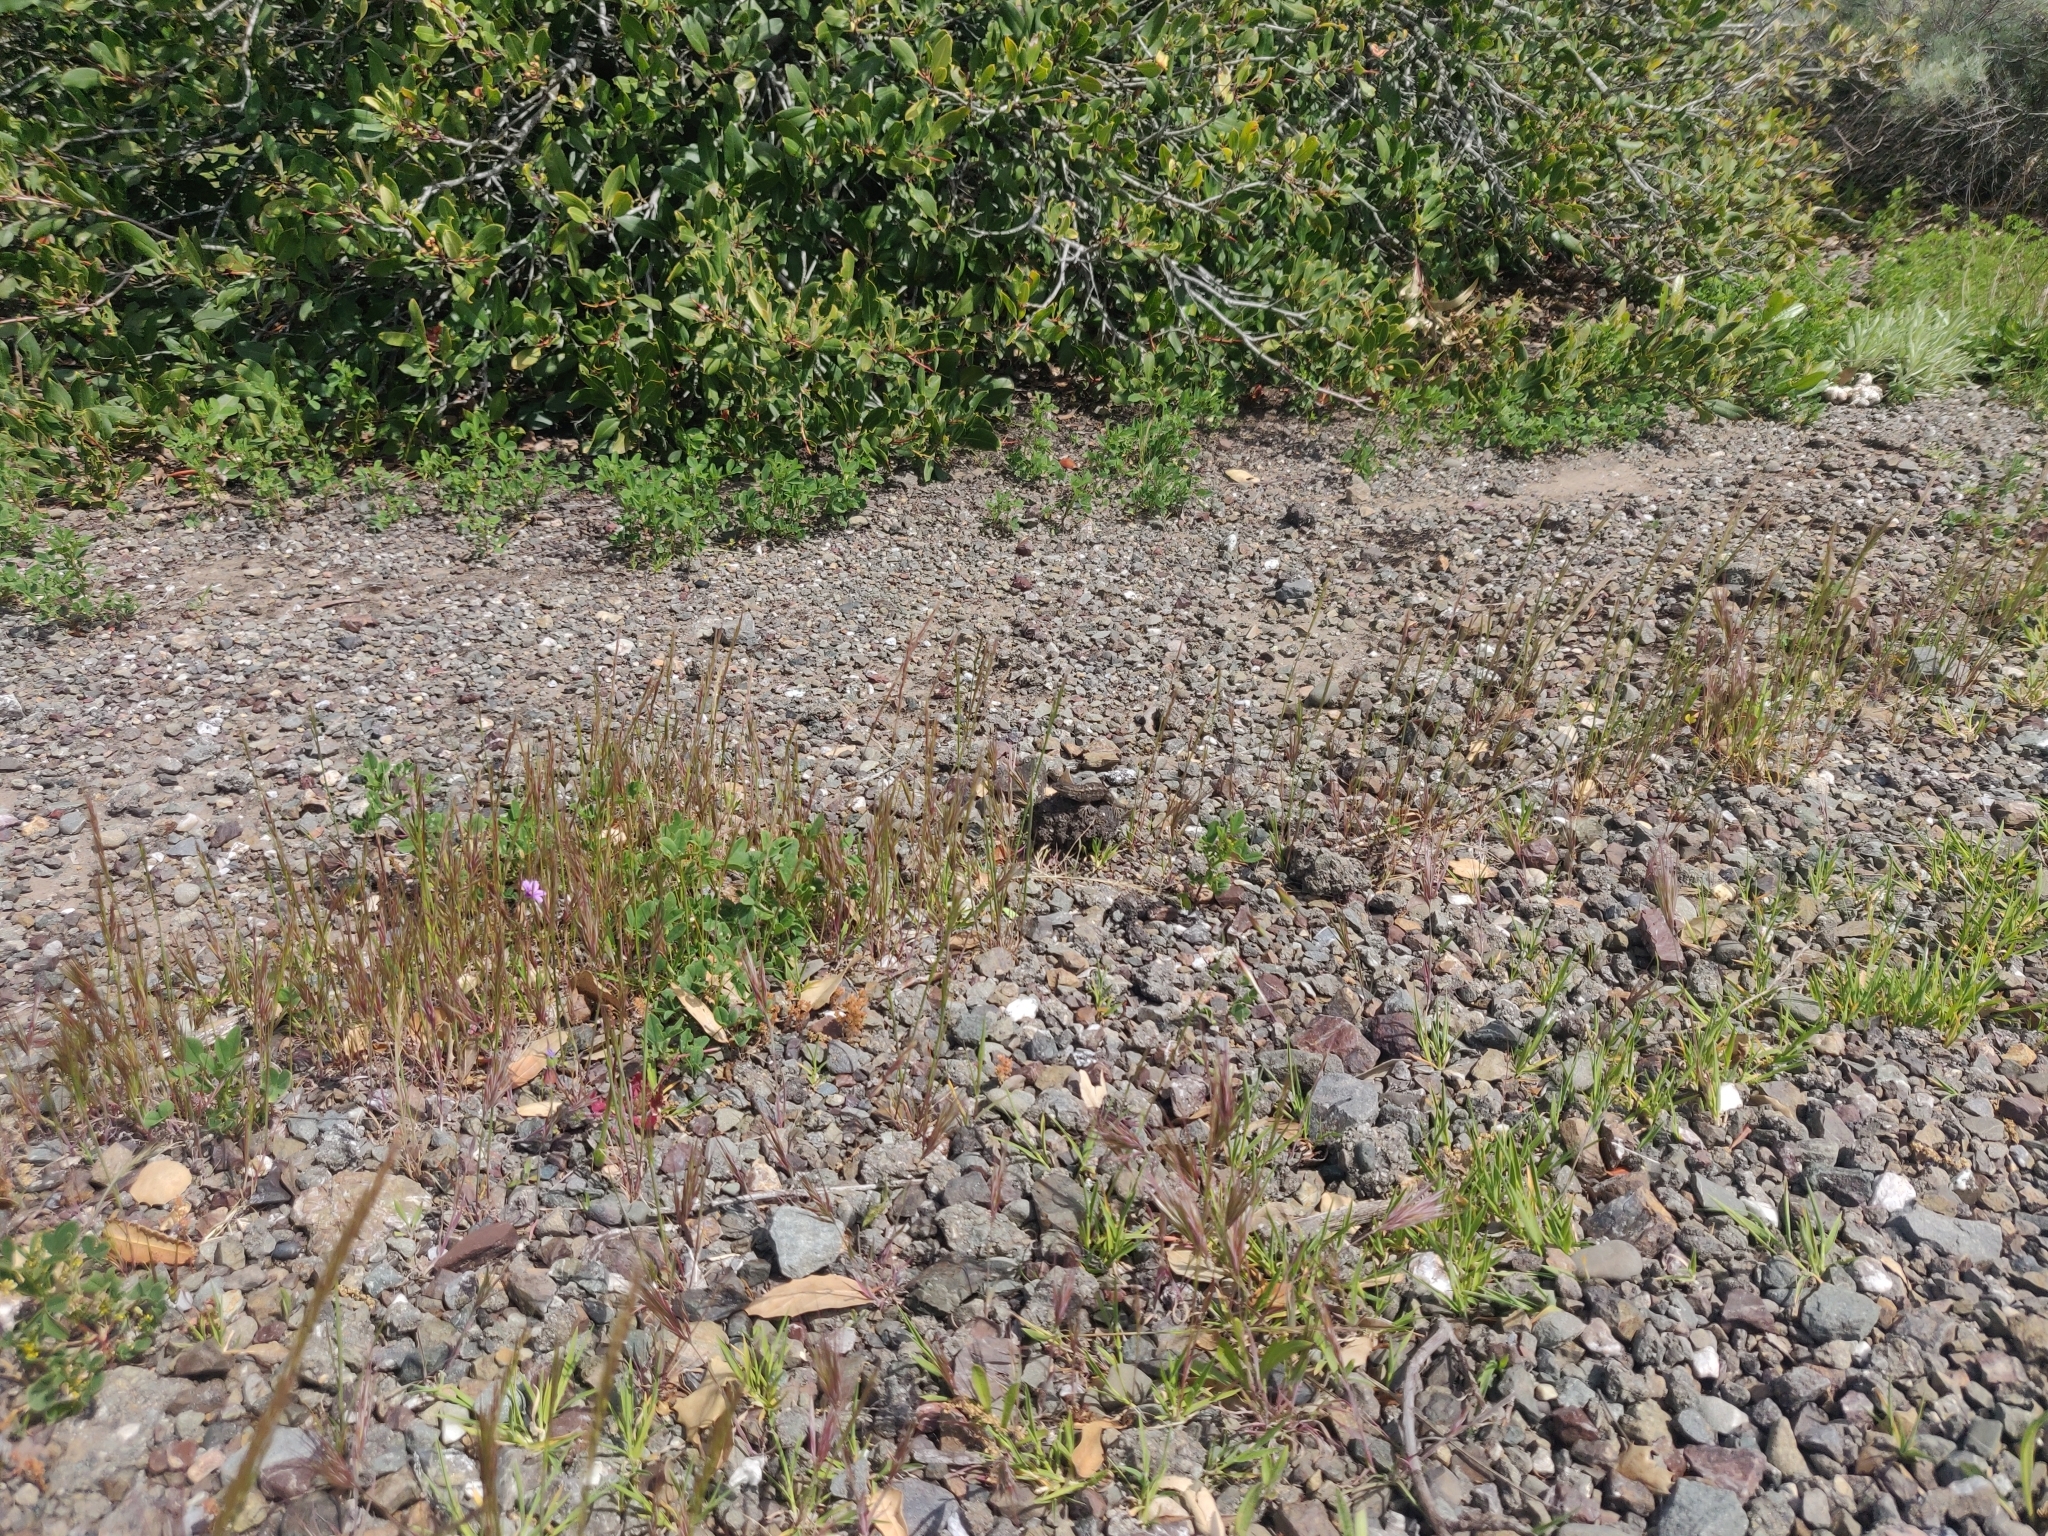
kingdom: Animalia
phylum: Chordata
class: Squamata
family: Phrynosomatidae
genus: Sceloporus
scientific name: Sceloporus occidentalis
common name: Western fence lizard
